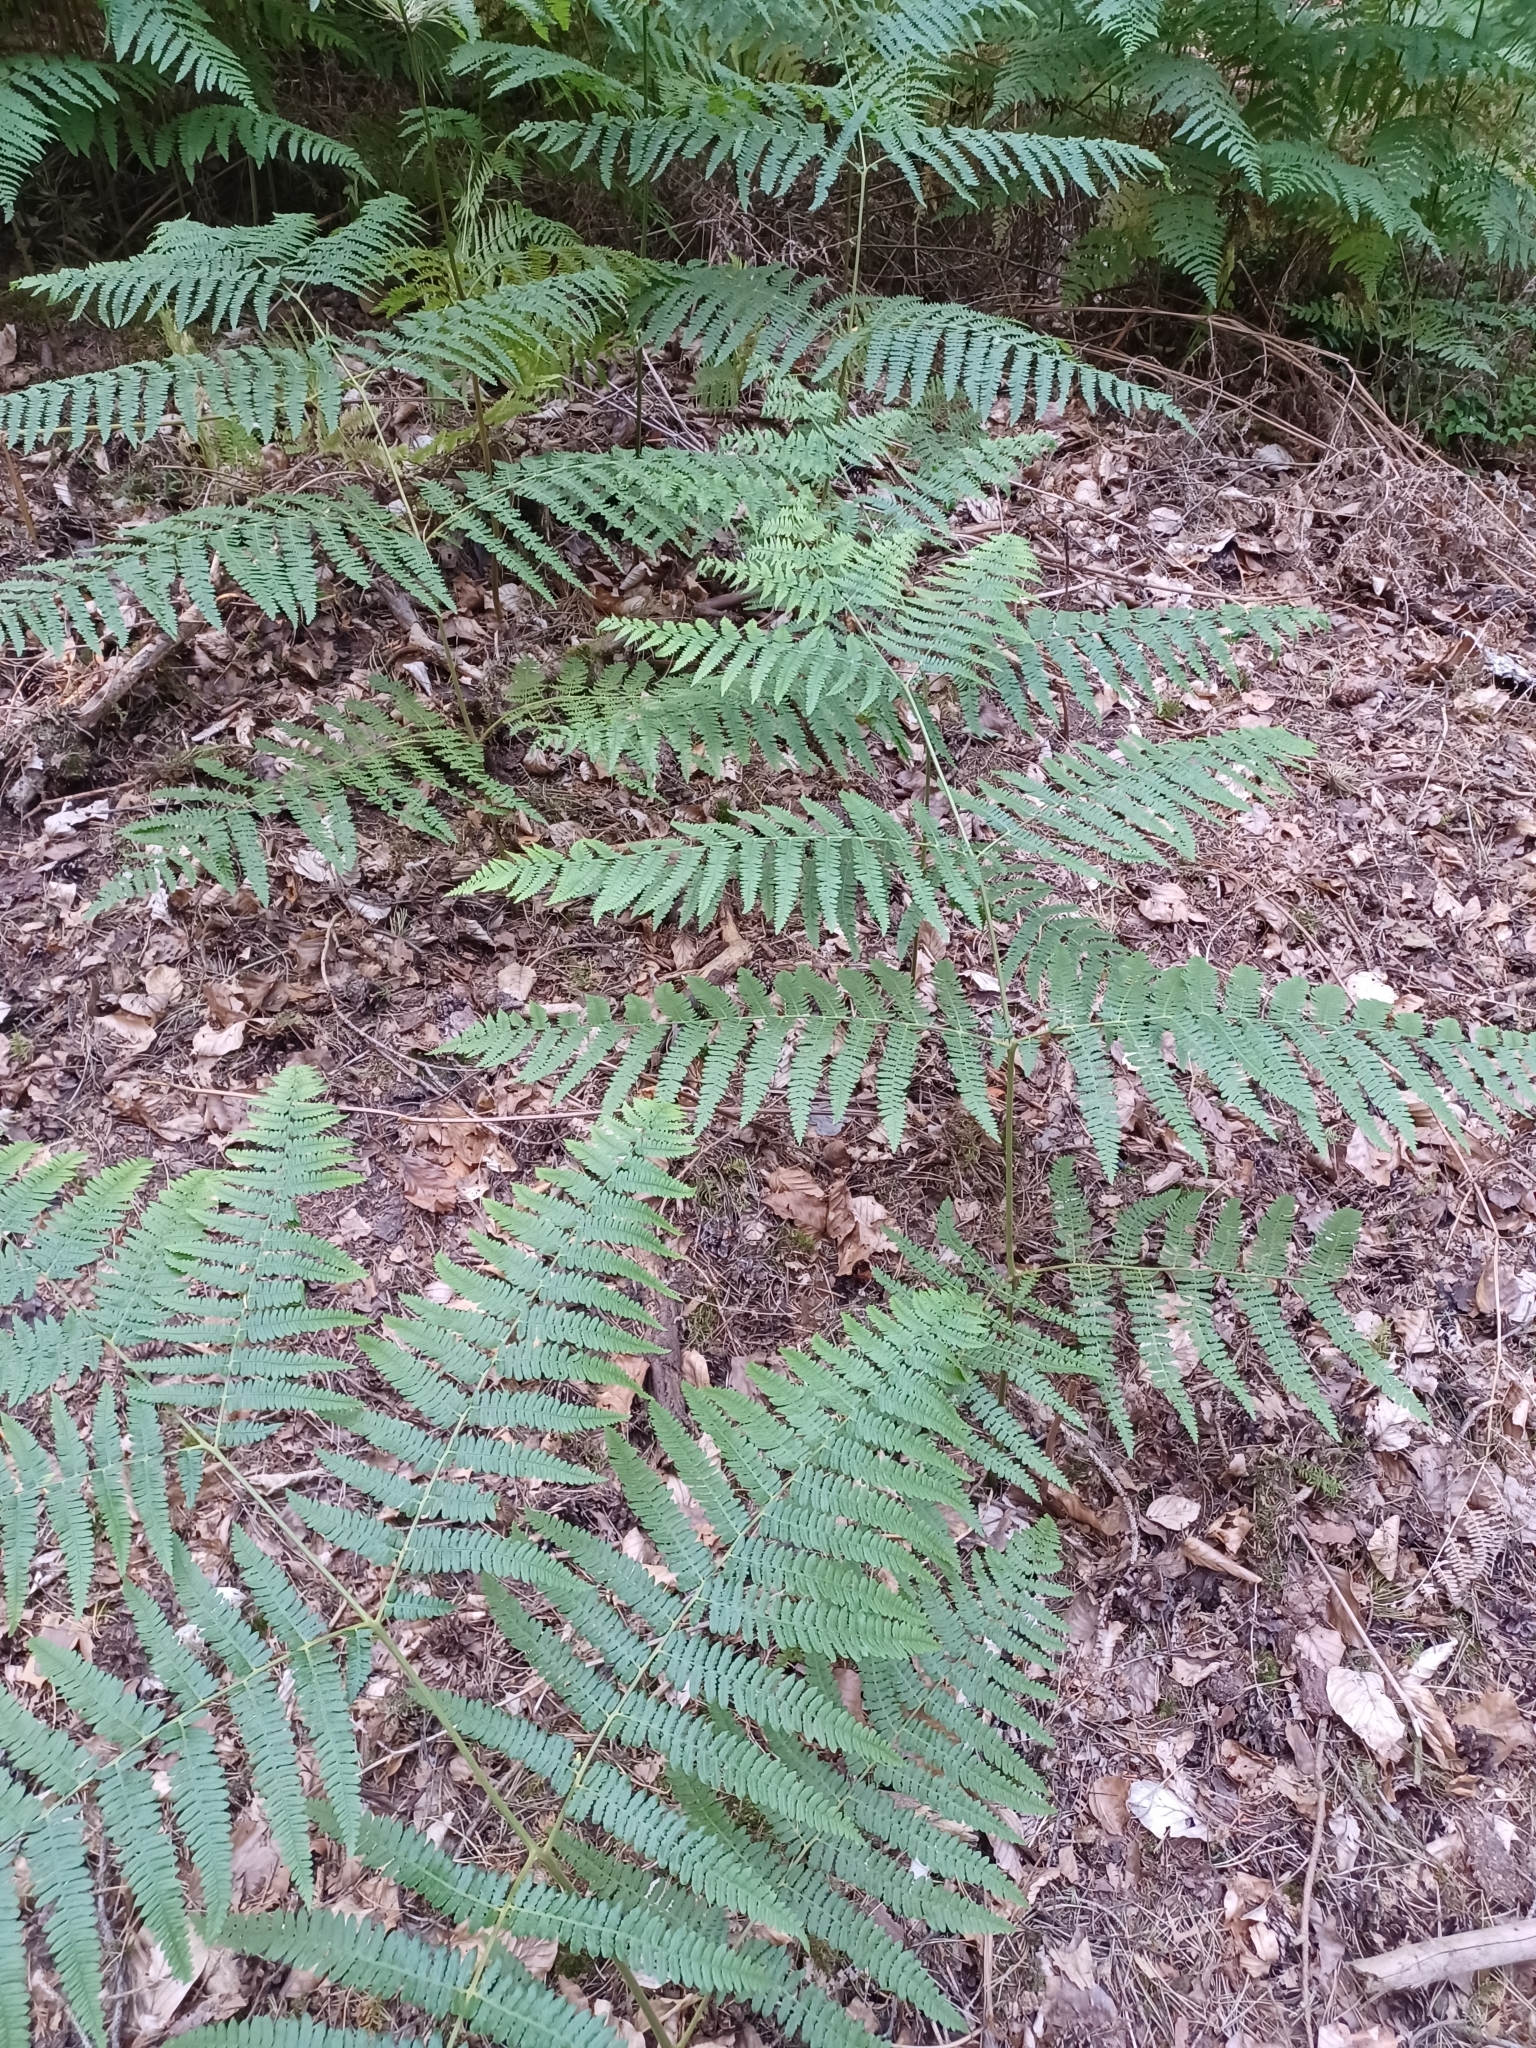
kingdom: Plantae
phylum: Tracheophyta
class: Polypodiopsida
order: Polypodiales
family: Dennstaedtiaceae
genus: Pteridium
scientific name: Pteridium aquilinum
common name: Bracken
